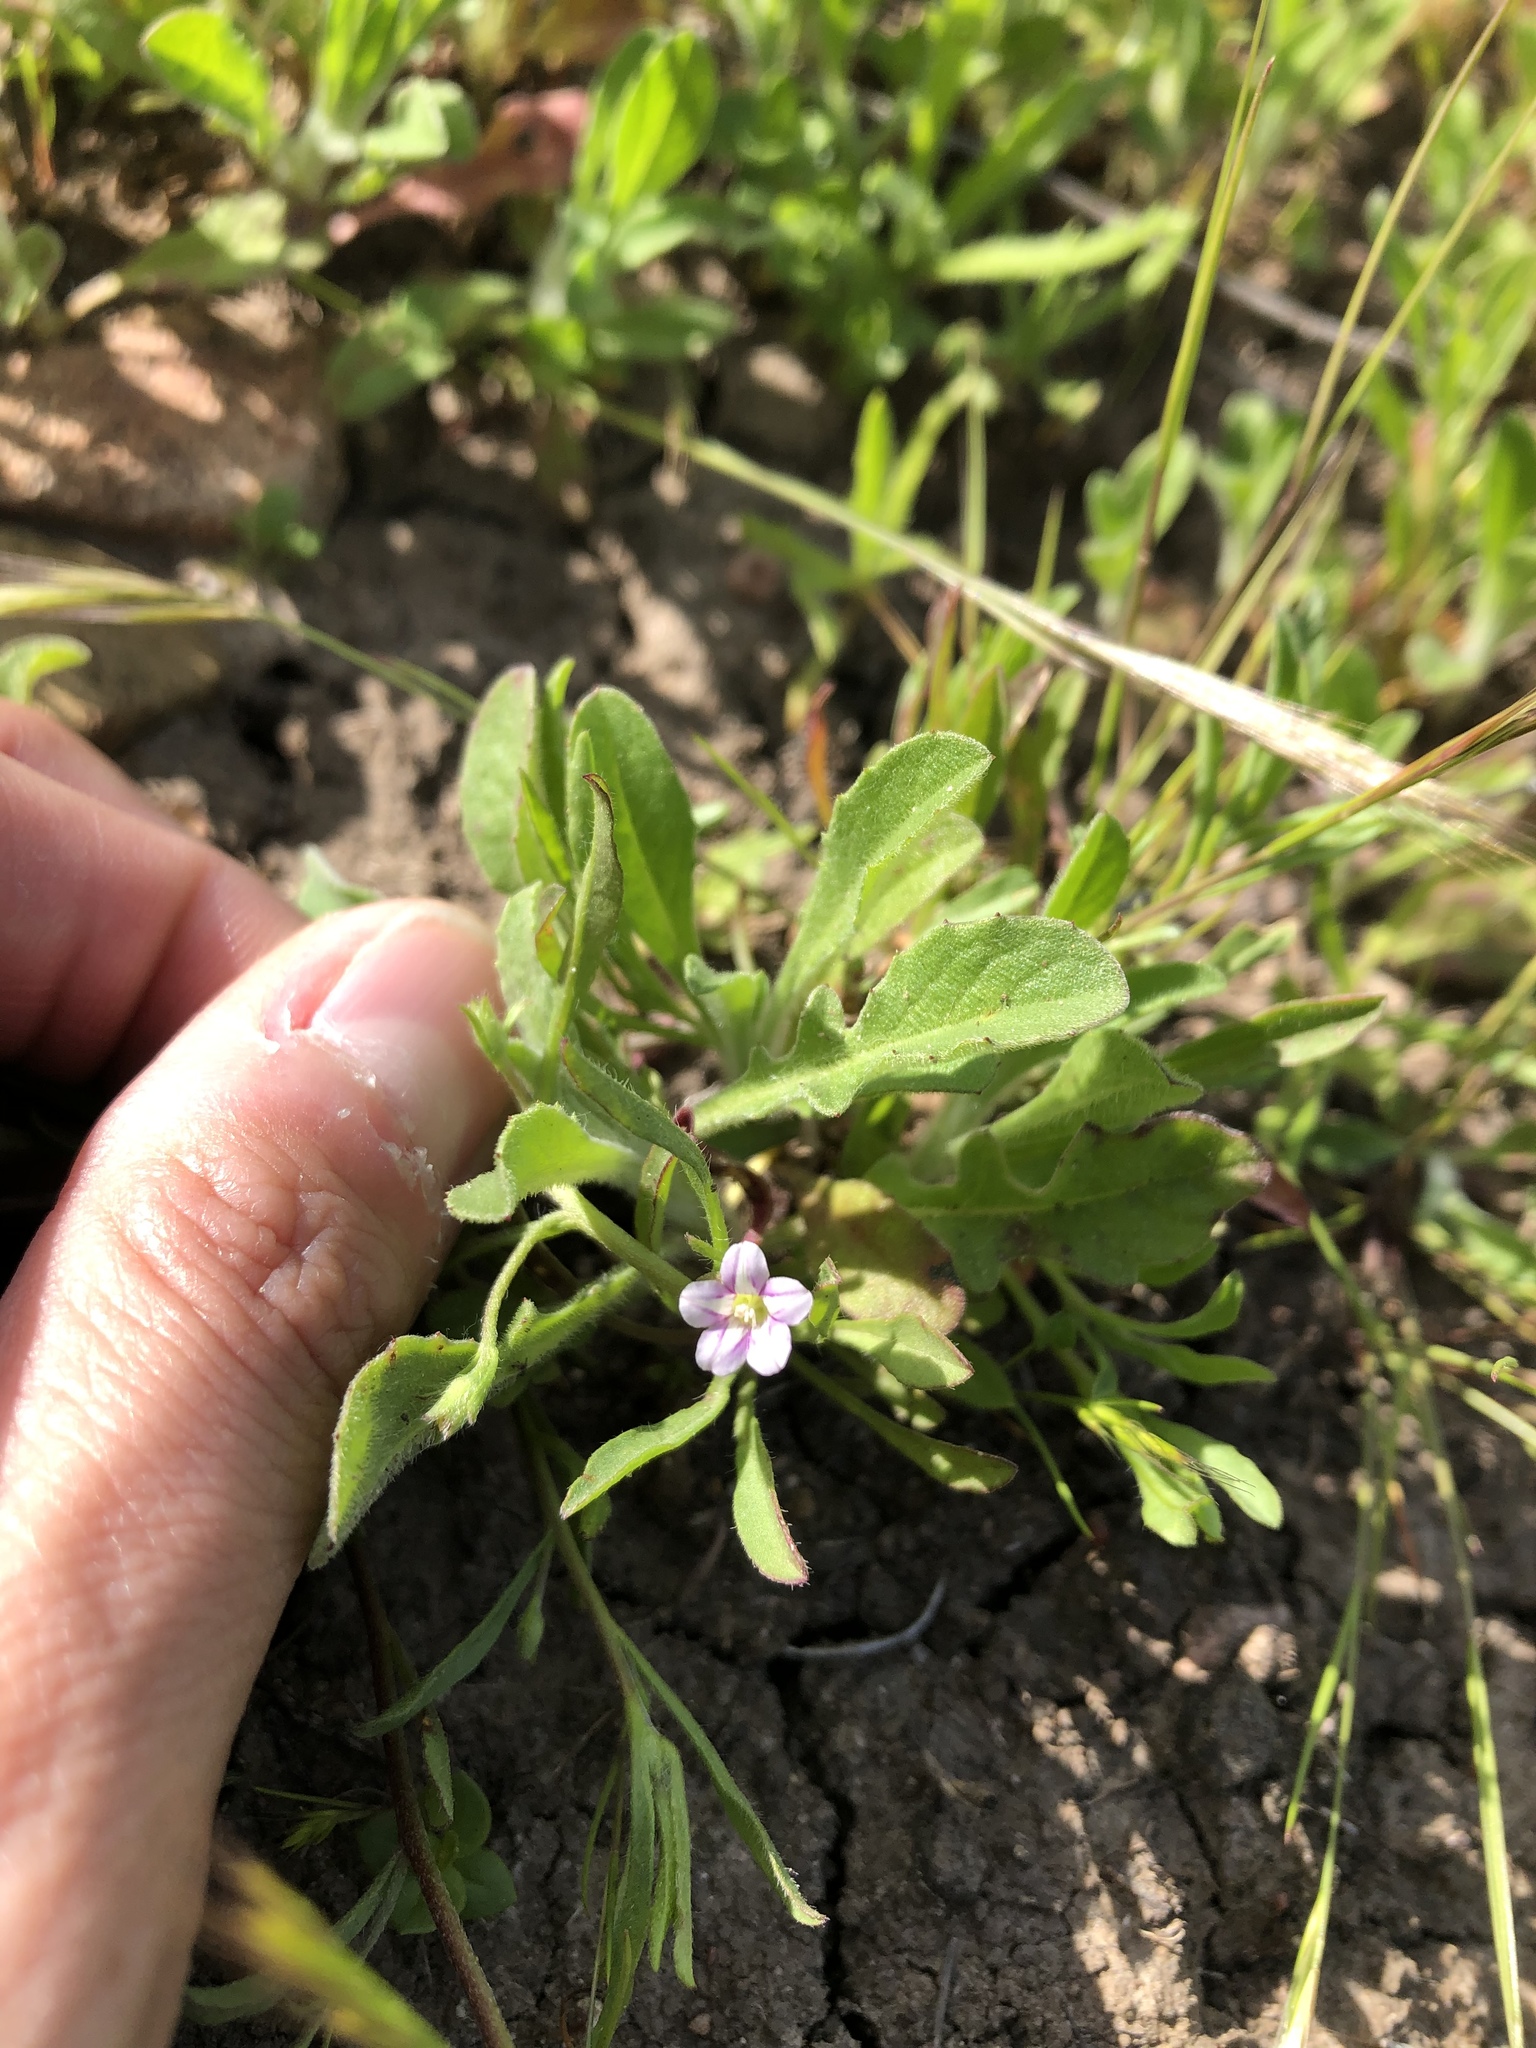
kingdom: Plantae
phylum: Tracheophyta
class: Magnoliopsida
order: Solanales
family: Convolvulaceae
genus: Convolvulus
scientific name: Convolvulus simulans
